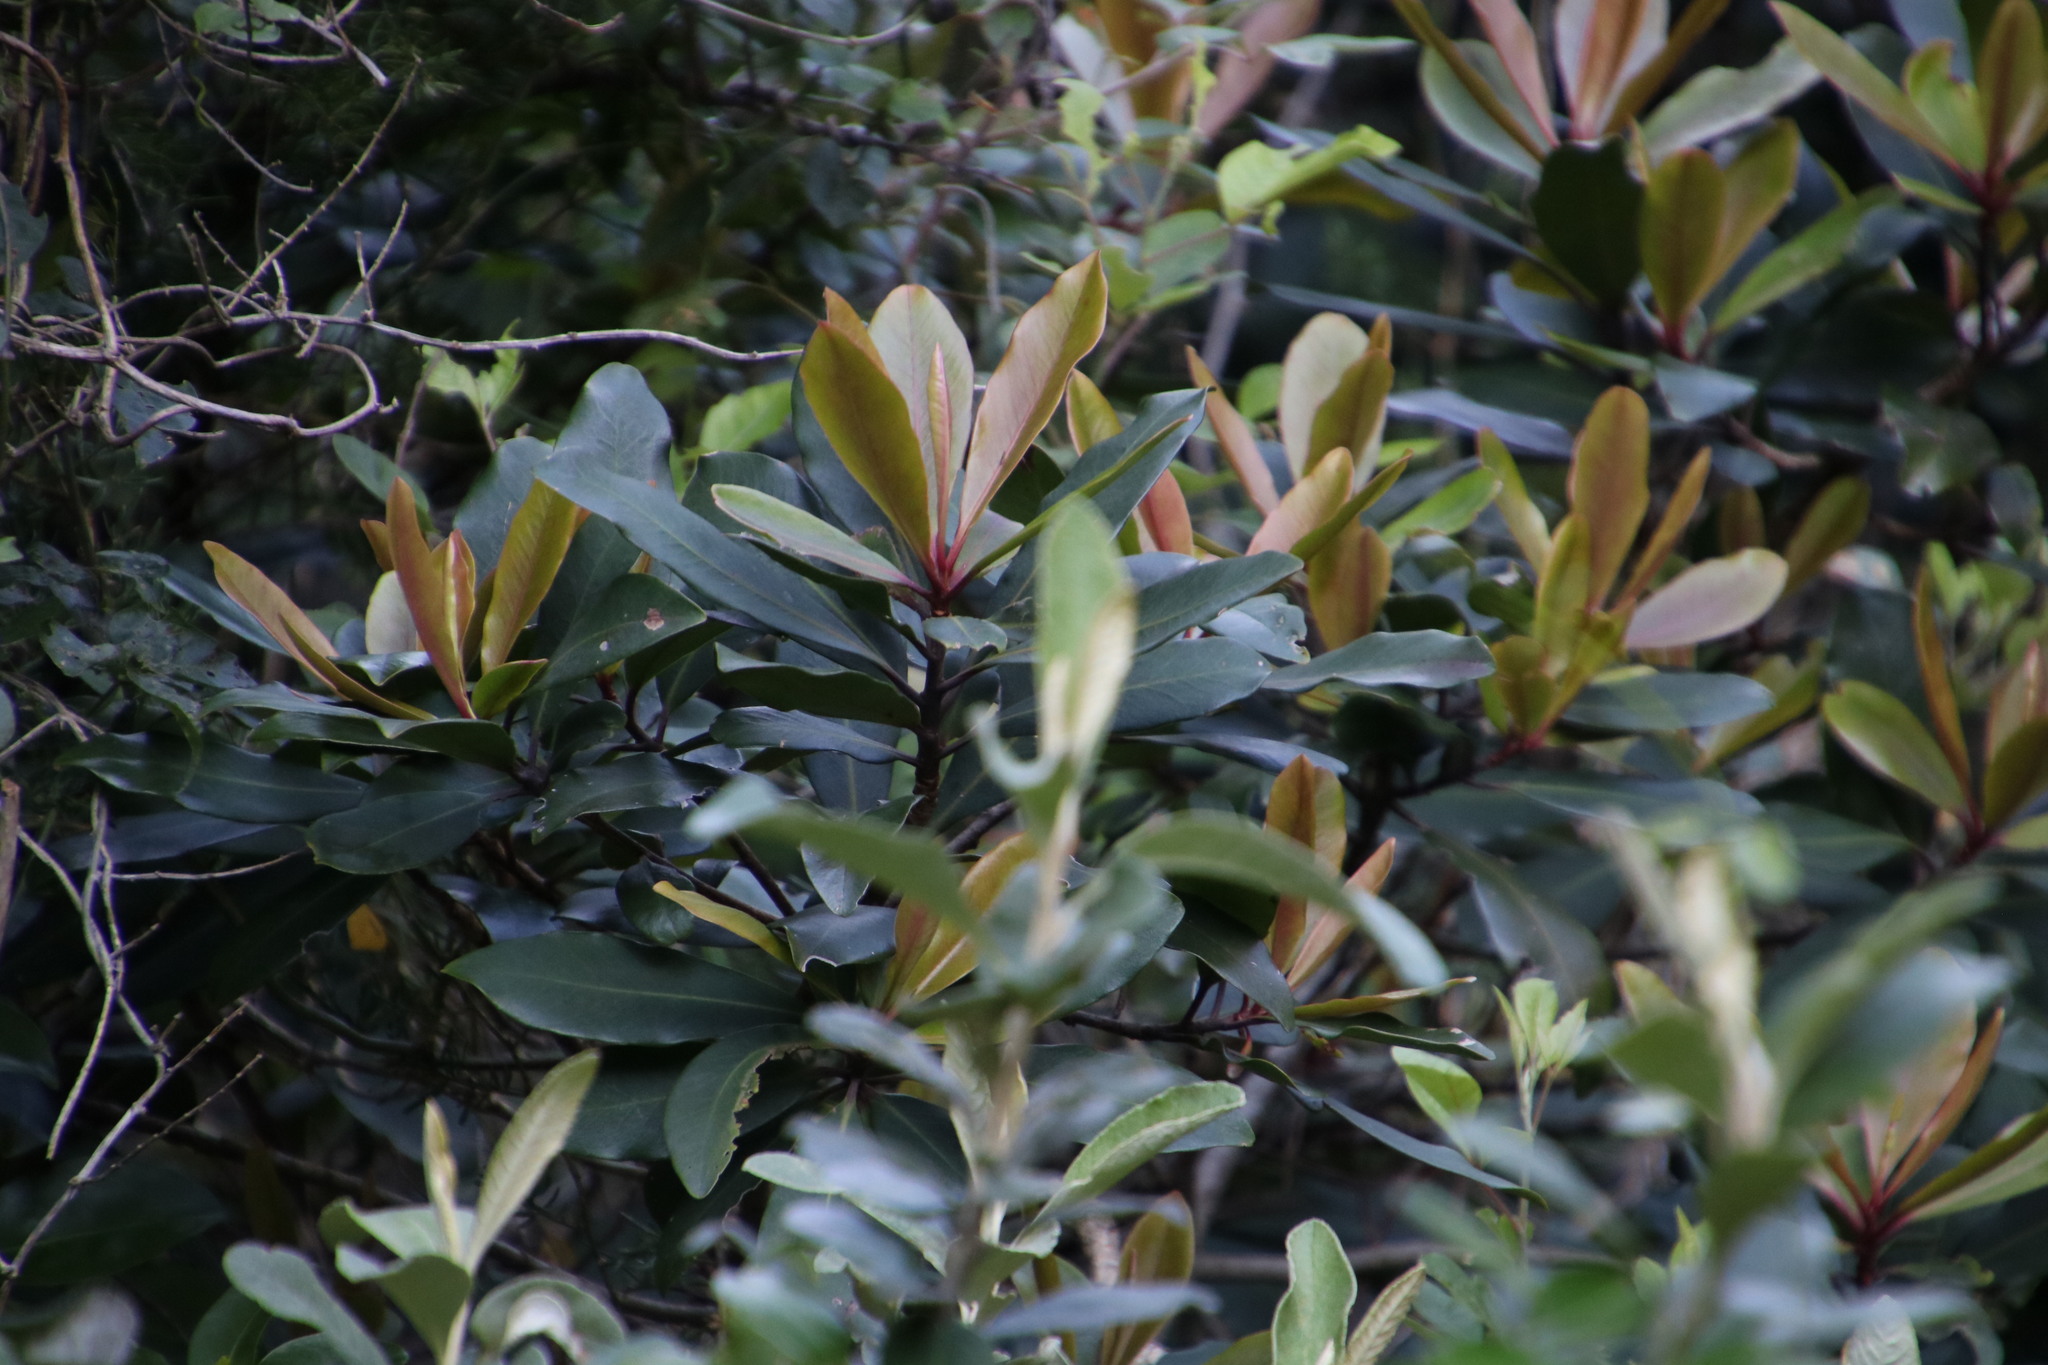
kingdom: Plantae
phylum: Tracheophyta
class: Magnoliopsida
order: Ericales
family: Primulaceae
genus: Myrsine
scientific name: Myrsine melanophloeos
